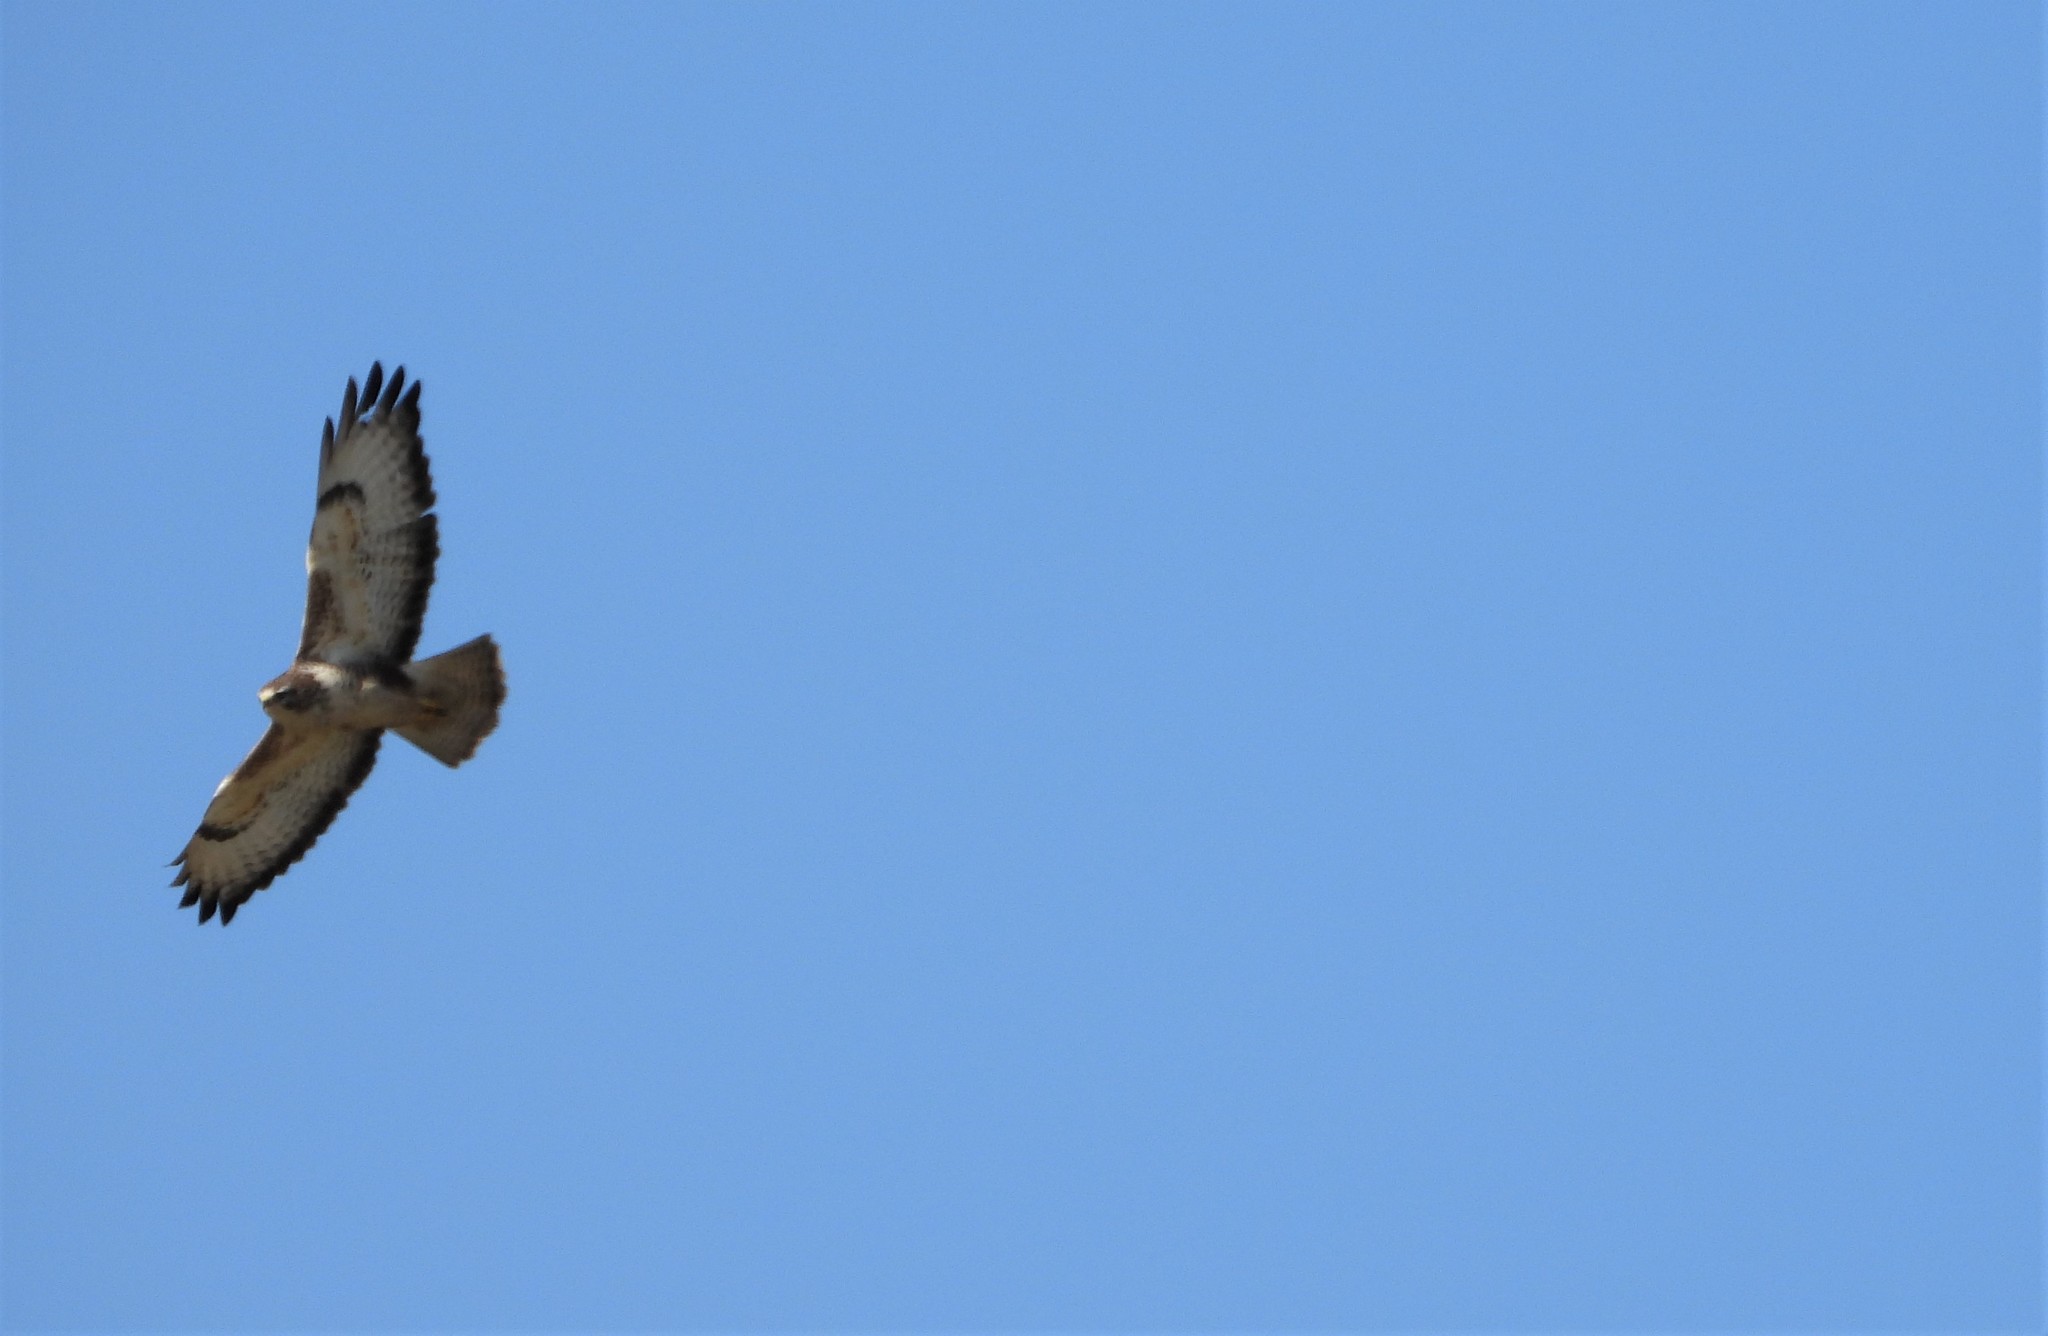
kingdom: Animalia
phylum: Chordata
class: Aves
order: Accipitriformes
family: Accipitridae
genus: Buteo
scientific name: Buteo buteo
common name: Common buzzard
